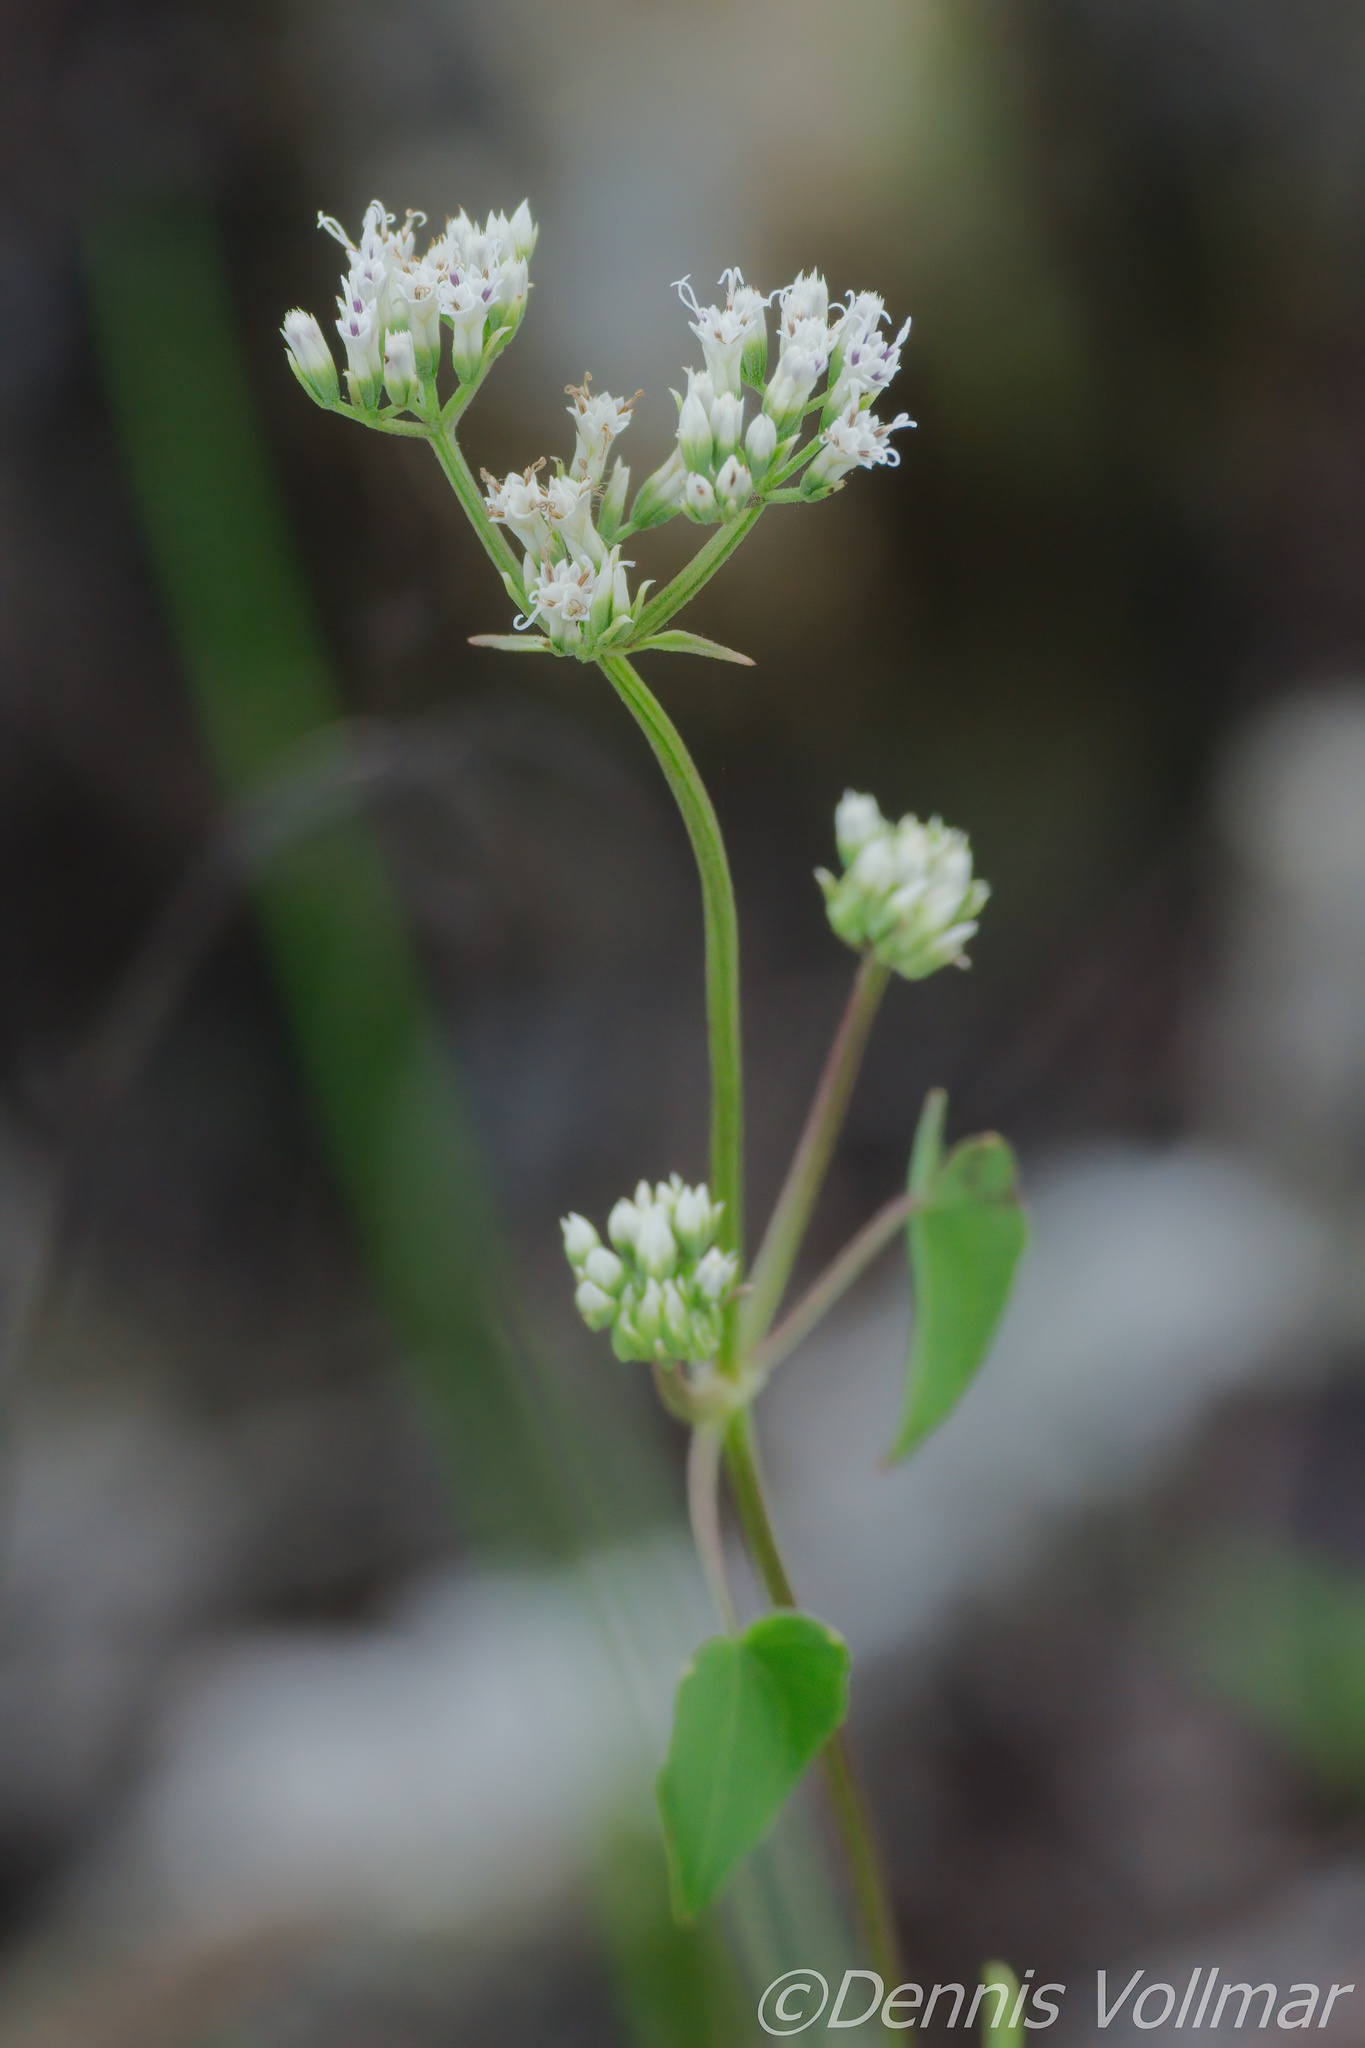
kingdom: Plantae
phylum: Tracheophyta
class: Magnoliopsida
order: Asterales
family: Asteraceae
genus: Mikania
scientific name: Mikania scandens
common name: Climbing hempvine
